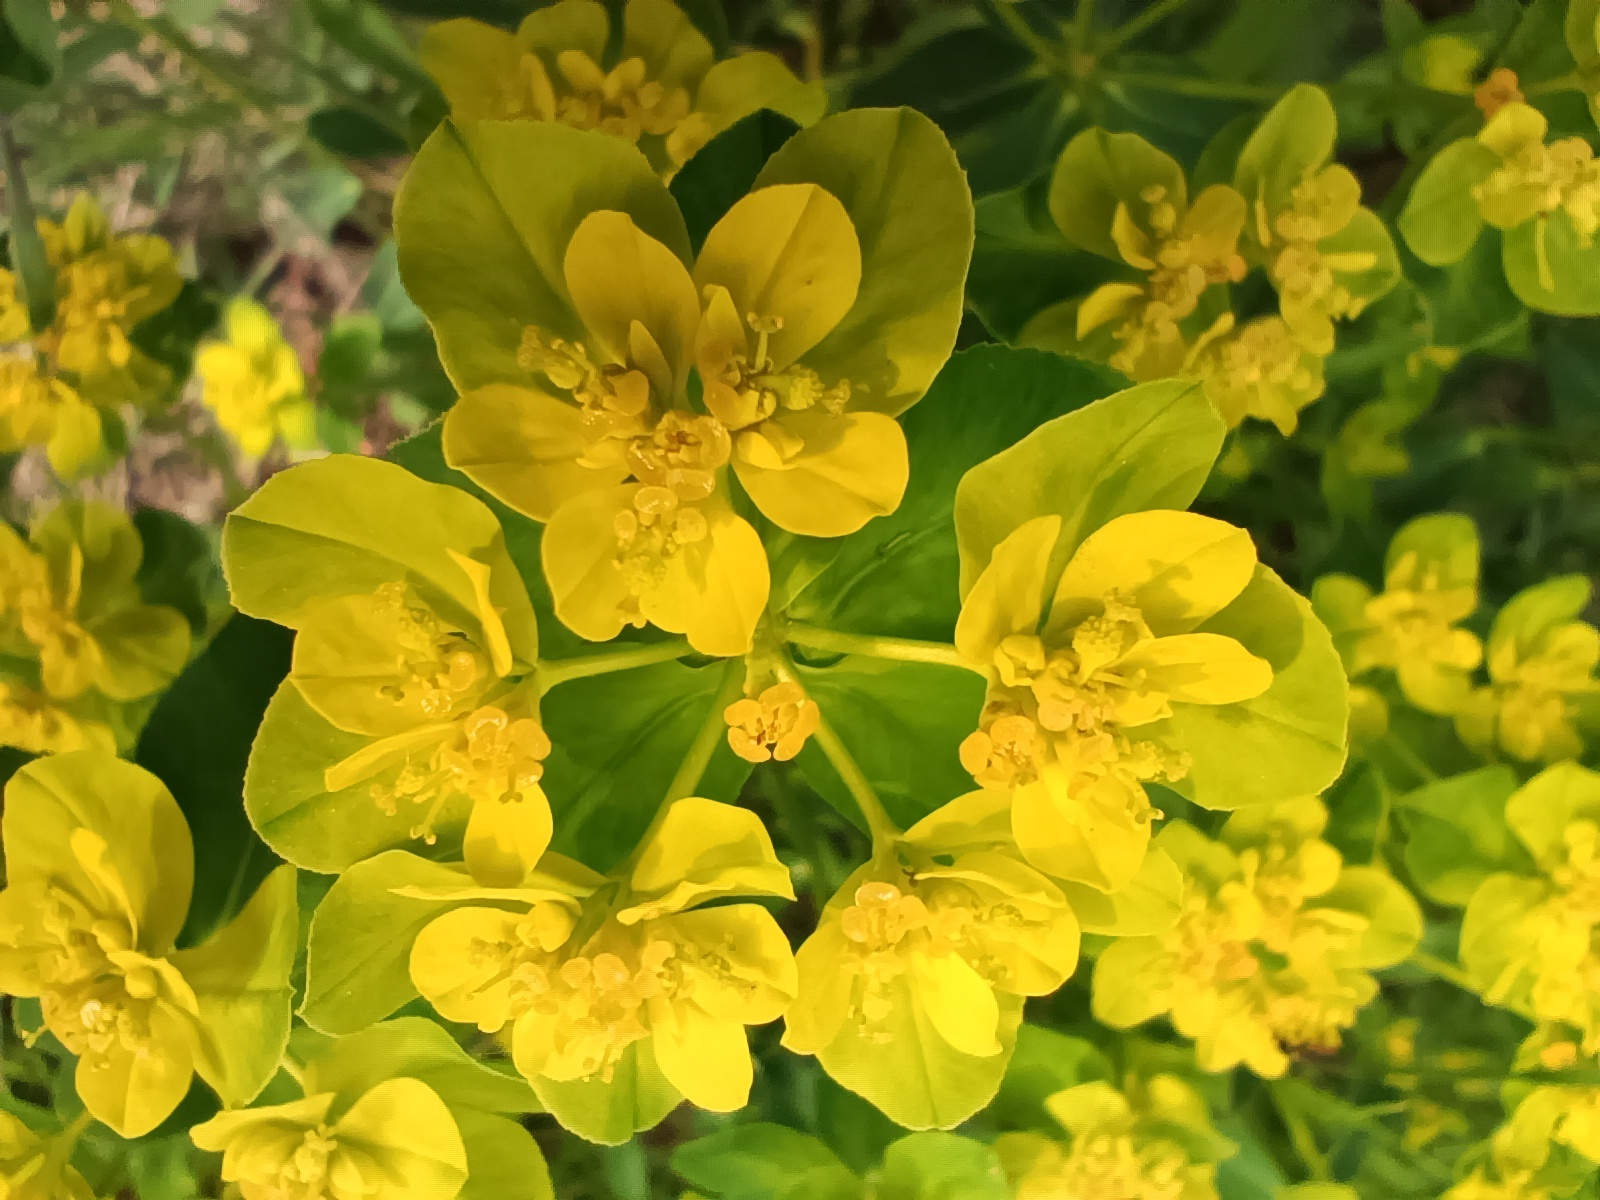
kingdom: Plantae
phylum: Tracheophyta
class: Magnoliopsida
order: Malpighiales
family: Euphorbiaceae
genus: Euphorbia
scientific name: Euphorbia verrucosa
